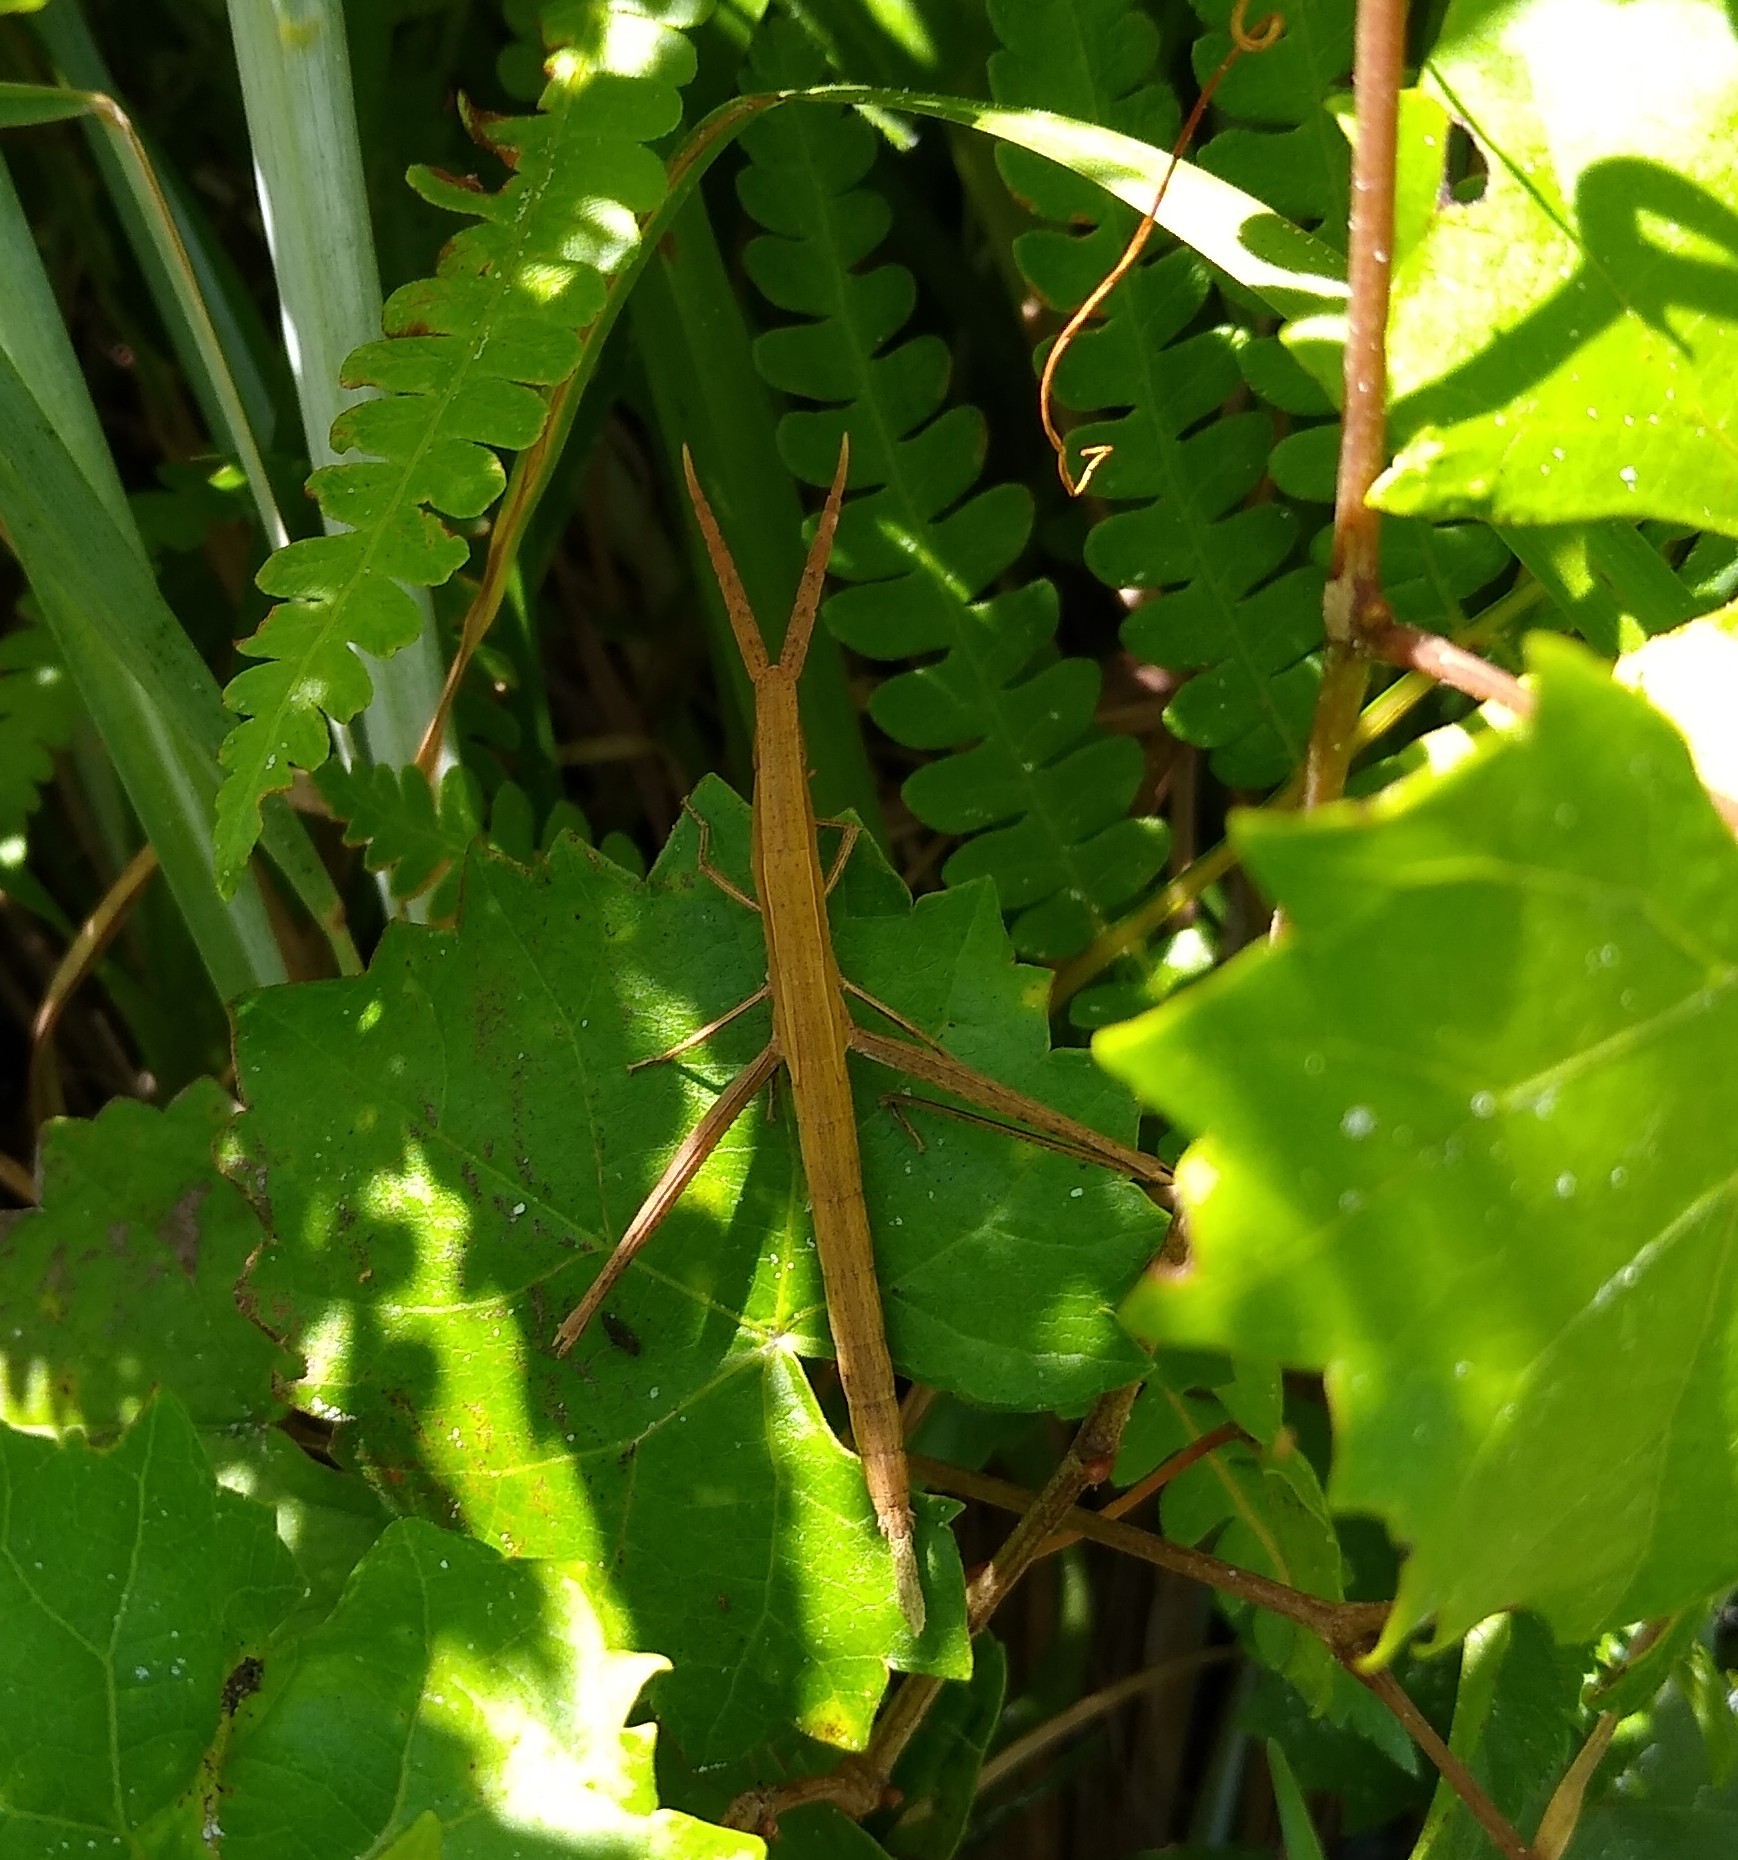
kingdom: Animalia
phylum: Arthropoda
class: Insecta
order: Orthoptera
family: Acrididae
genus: Achurum
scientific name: Achurum carinatum
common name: Long-headed toothpick grasshopper
